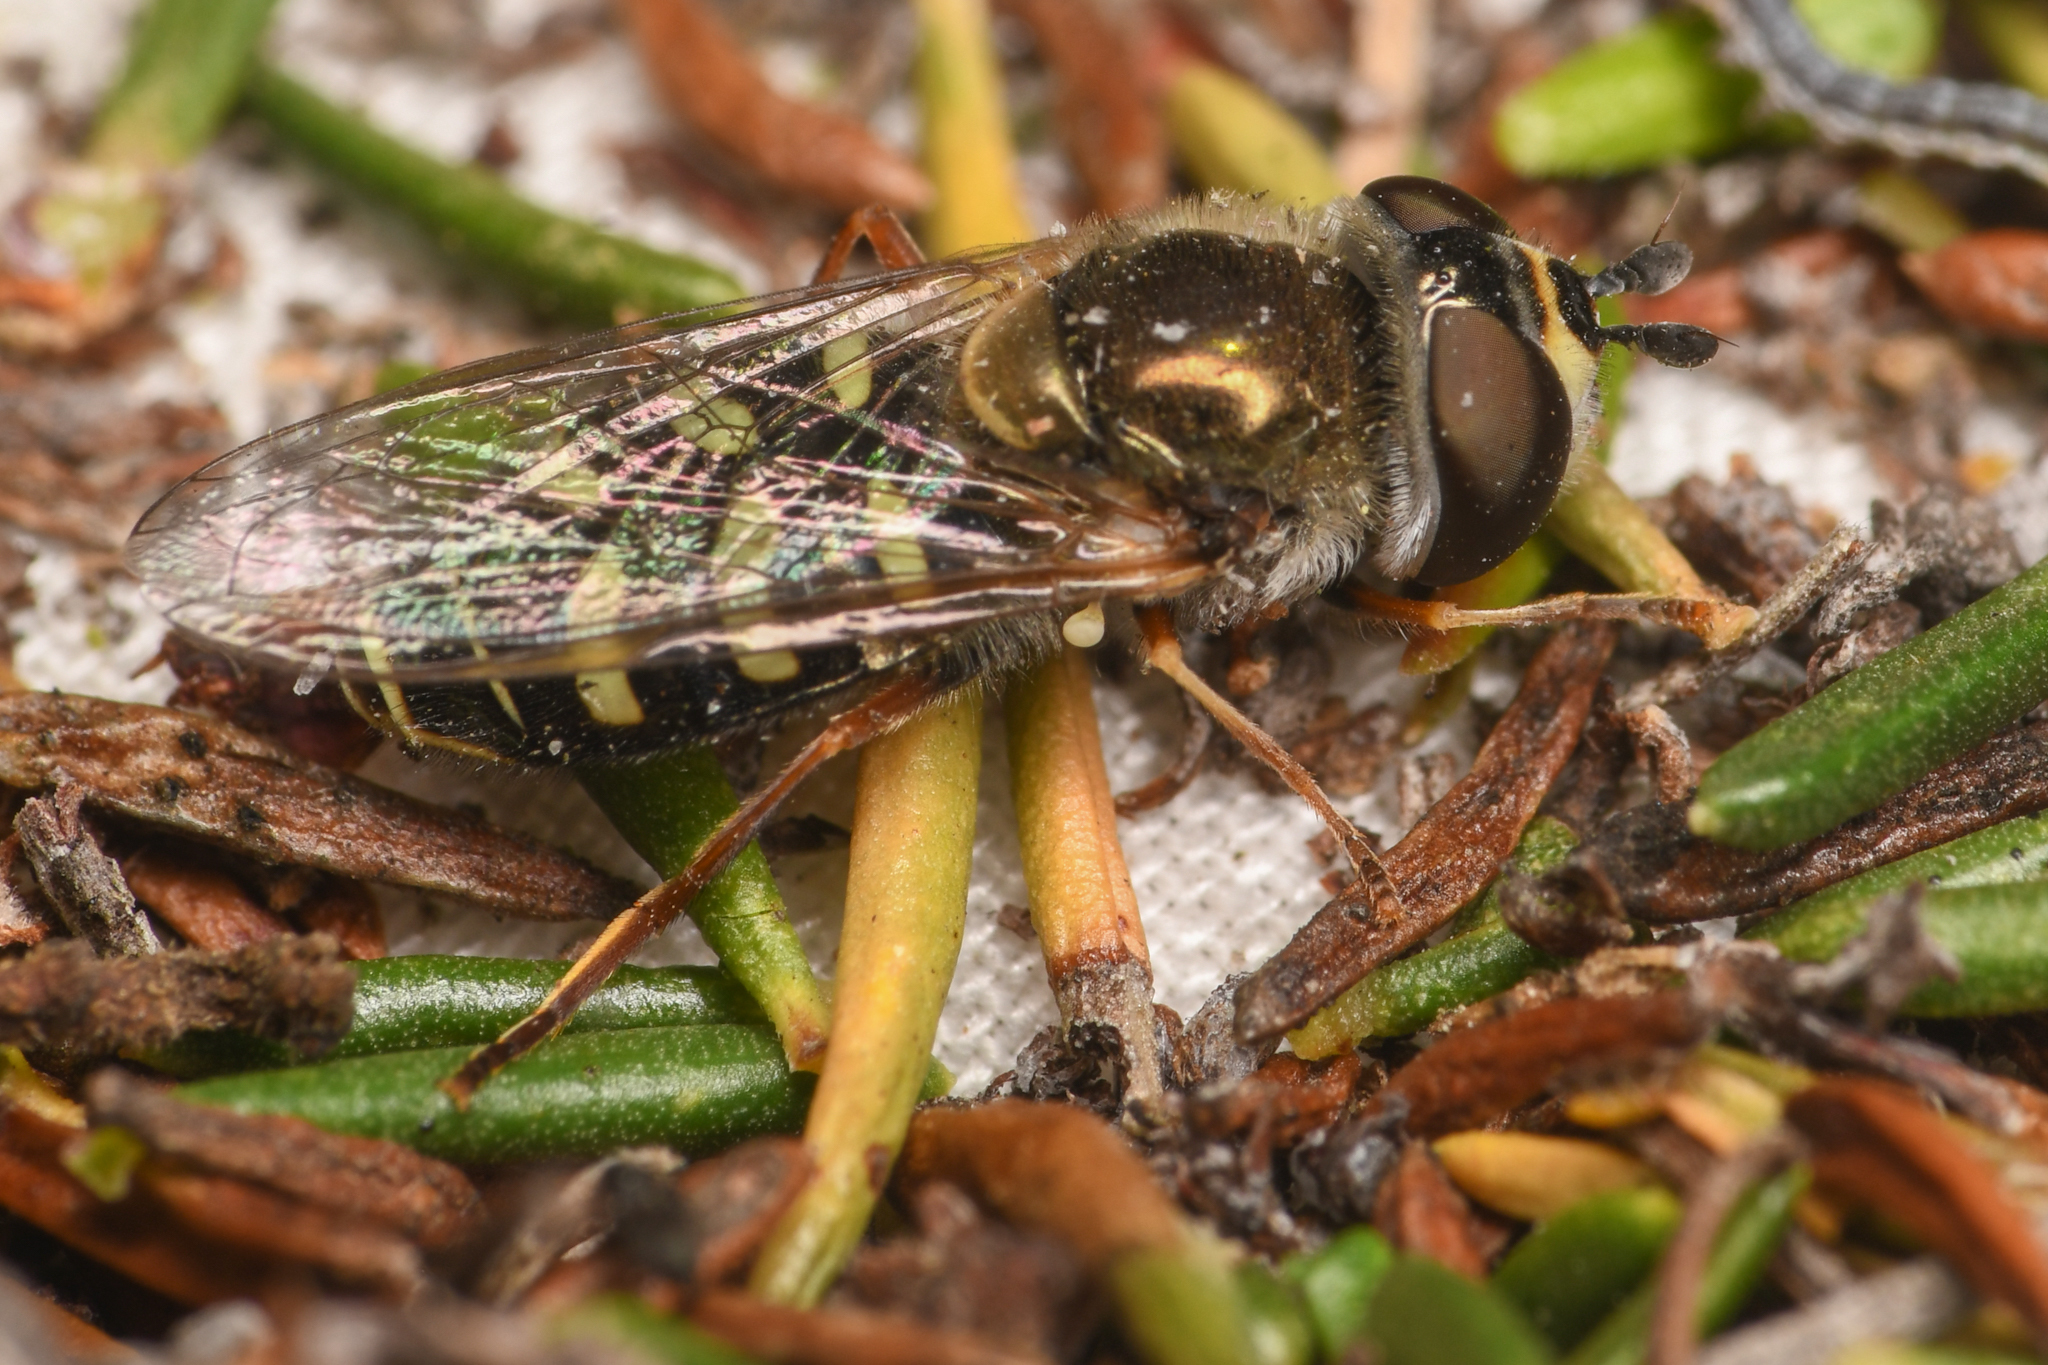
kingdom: Animalia
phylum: Arthropoda
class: Insecta
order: Diptera
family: Syrphidae
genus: Eupeodes
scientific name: Eupeodes volucris
